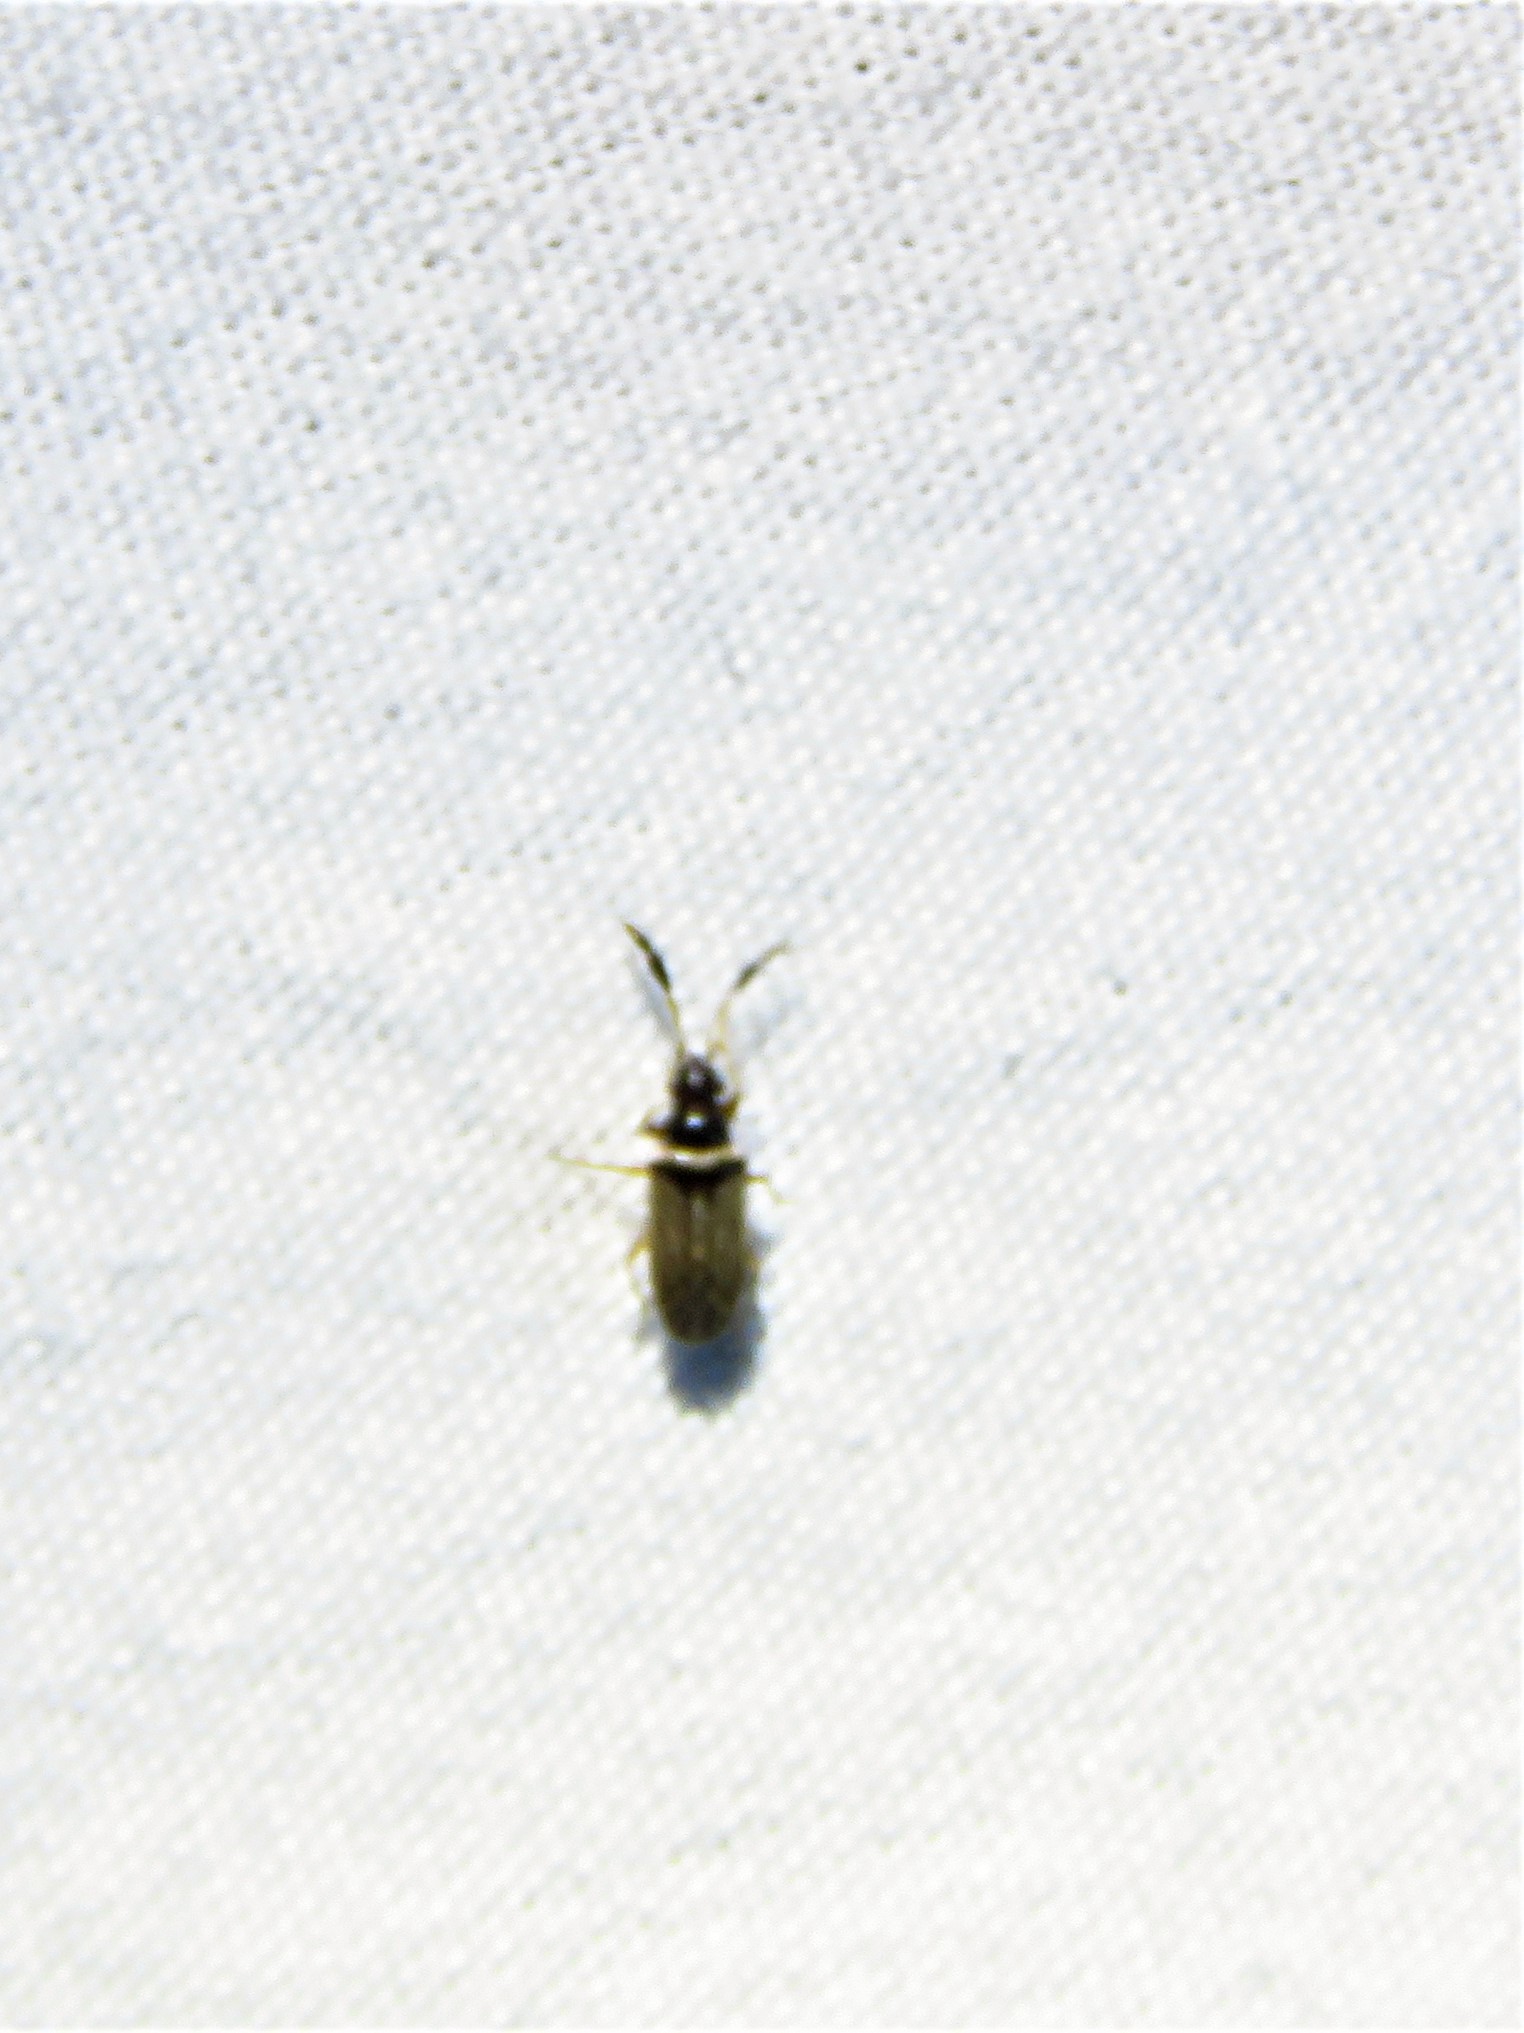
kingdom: Animalia
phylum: Arthropoda
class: Insecta
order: Hemiptera
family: Rhyparochromidae
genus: Ptochiomera
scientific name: Ptochiomera nodosa
